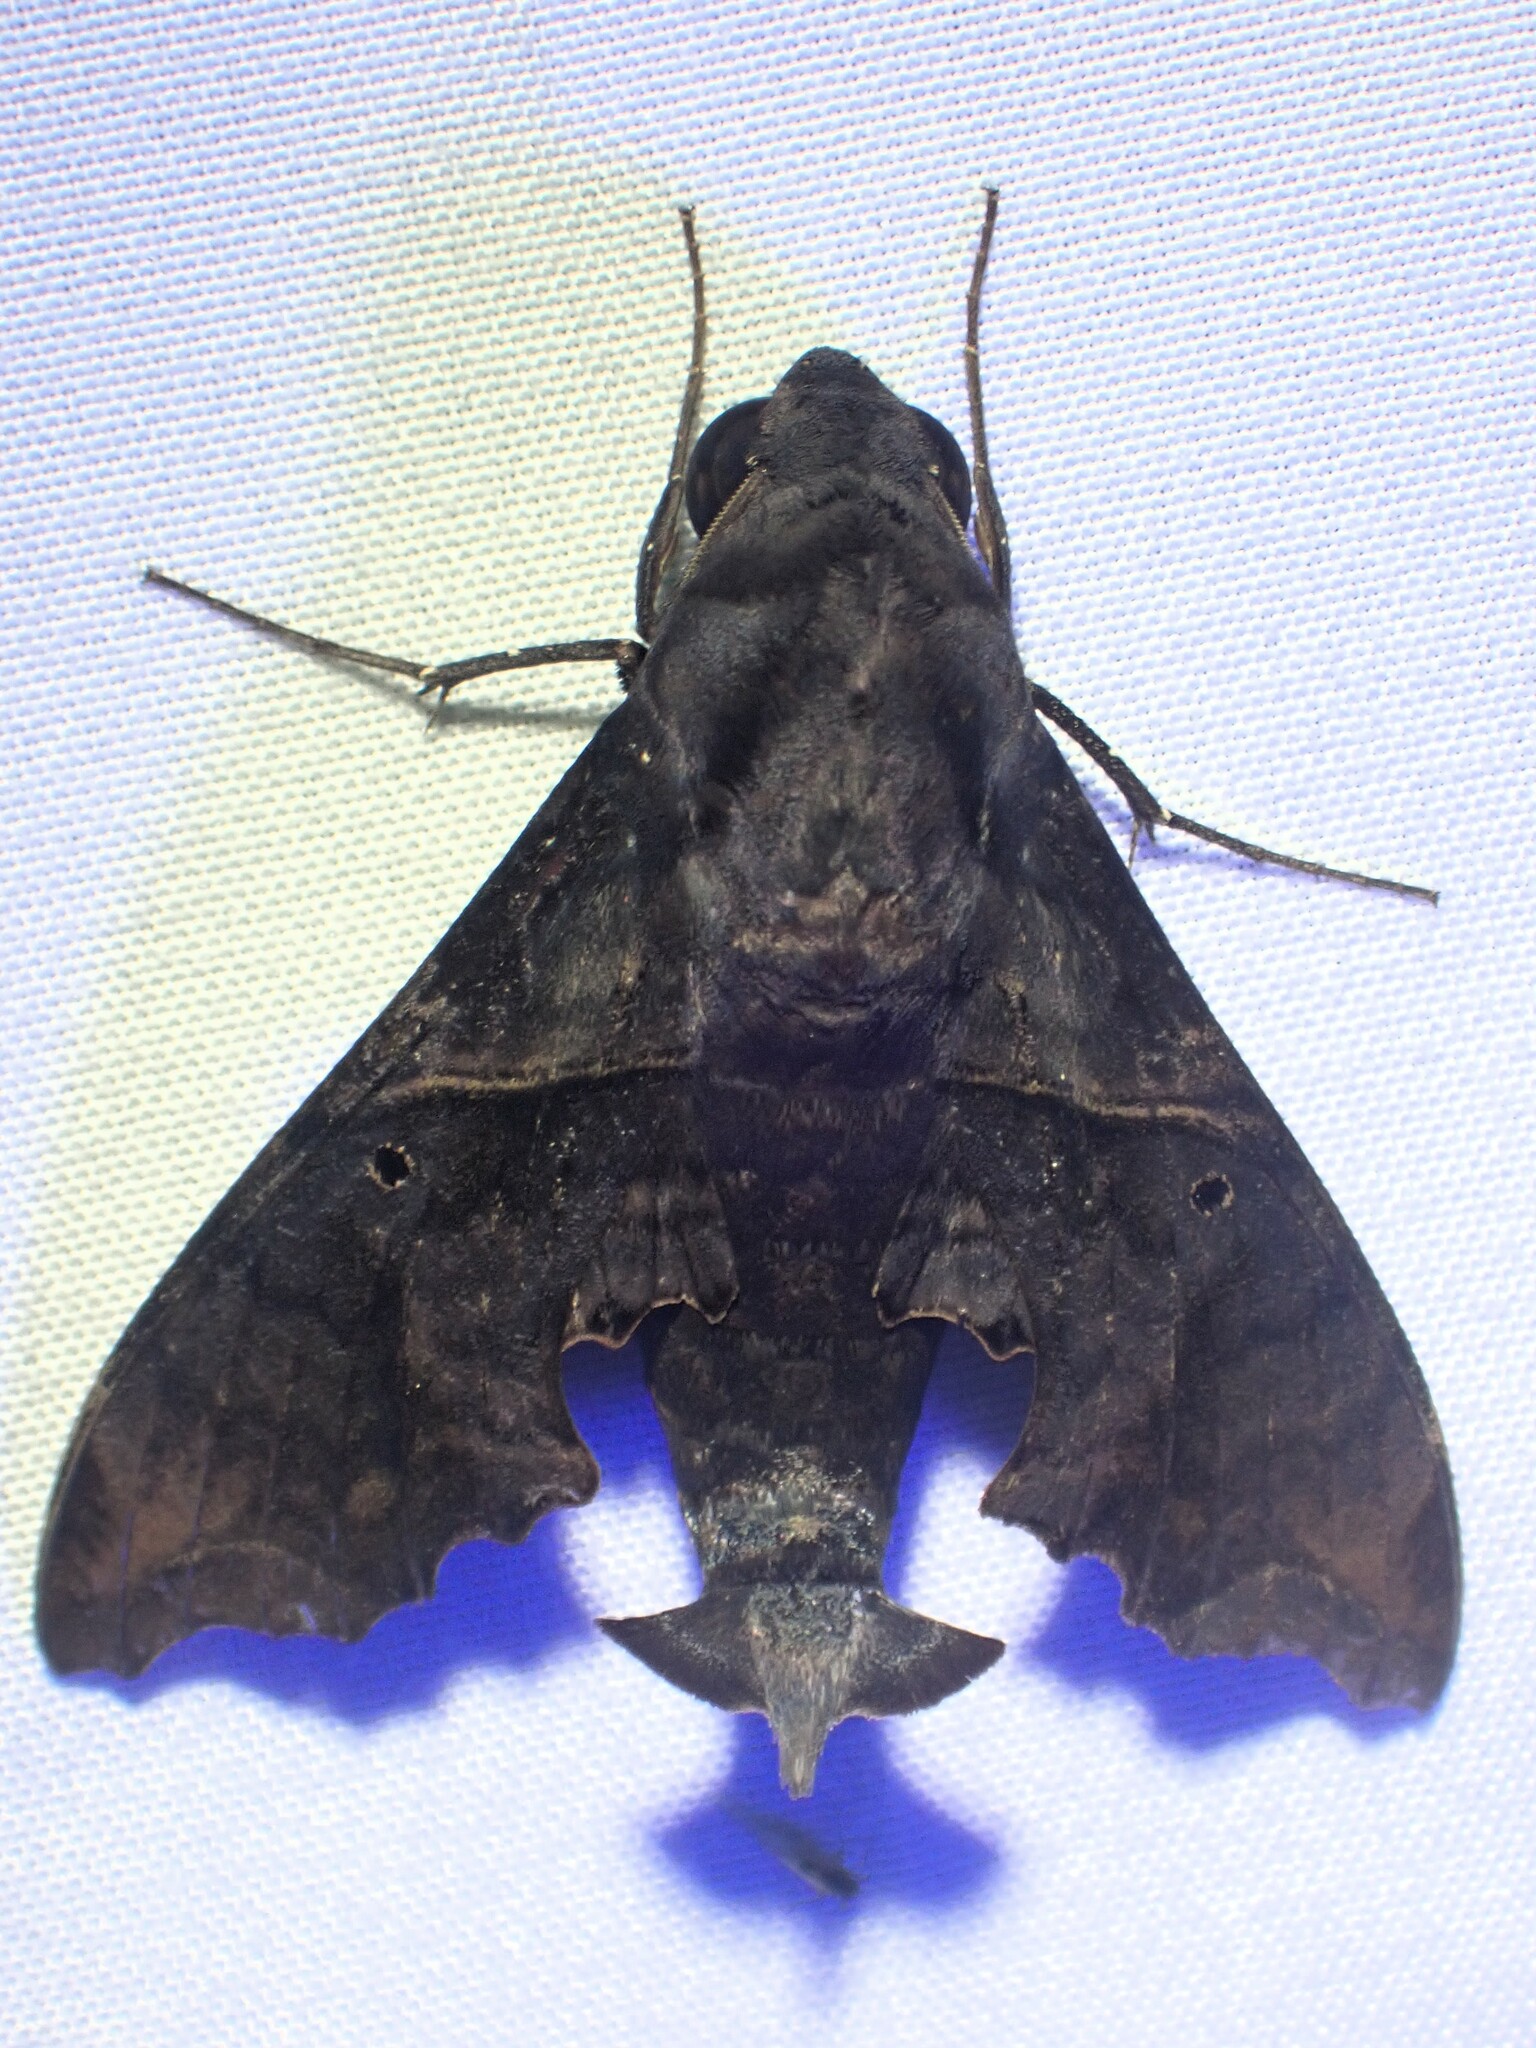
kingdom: Animalia
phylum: Arthropoda
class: Insecta
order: Lepidoptera
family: Sphingidae
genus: Enyo
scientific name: Enyo lugubris
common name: Mournful sphinx
